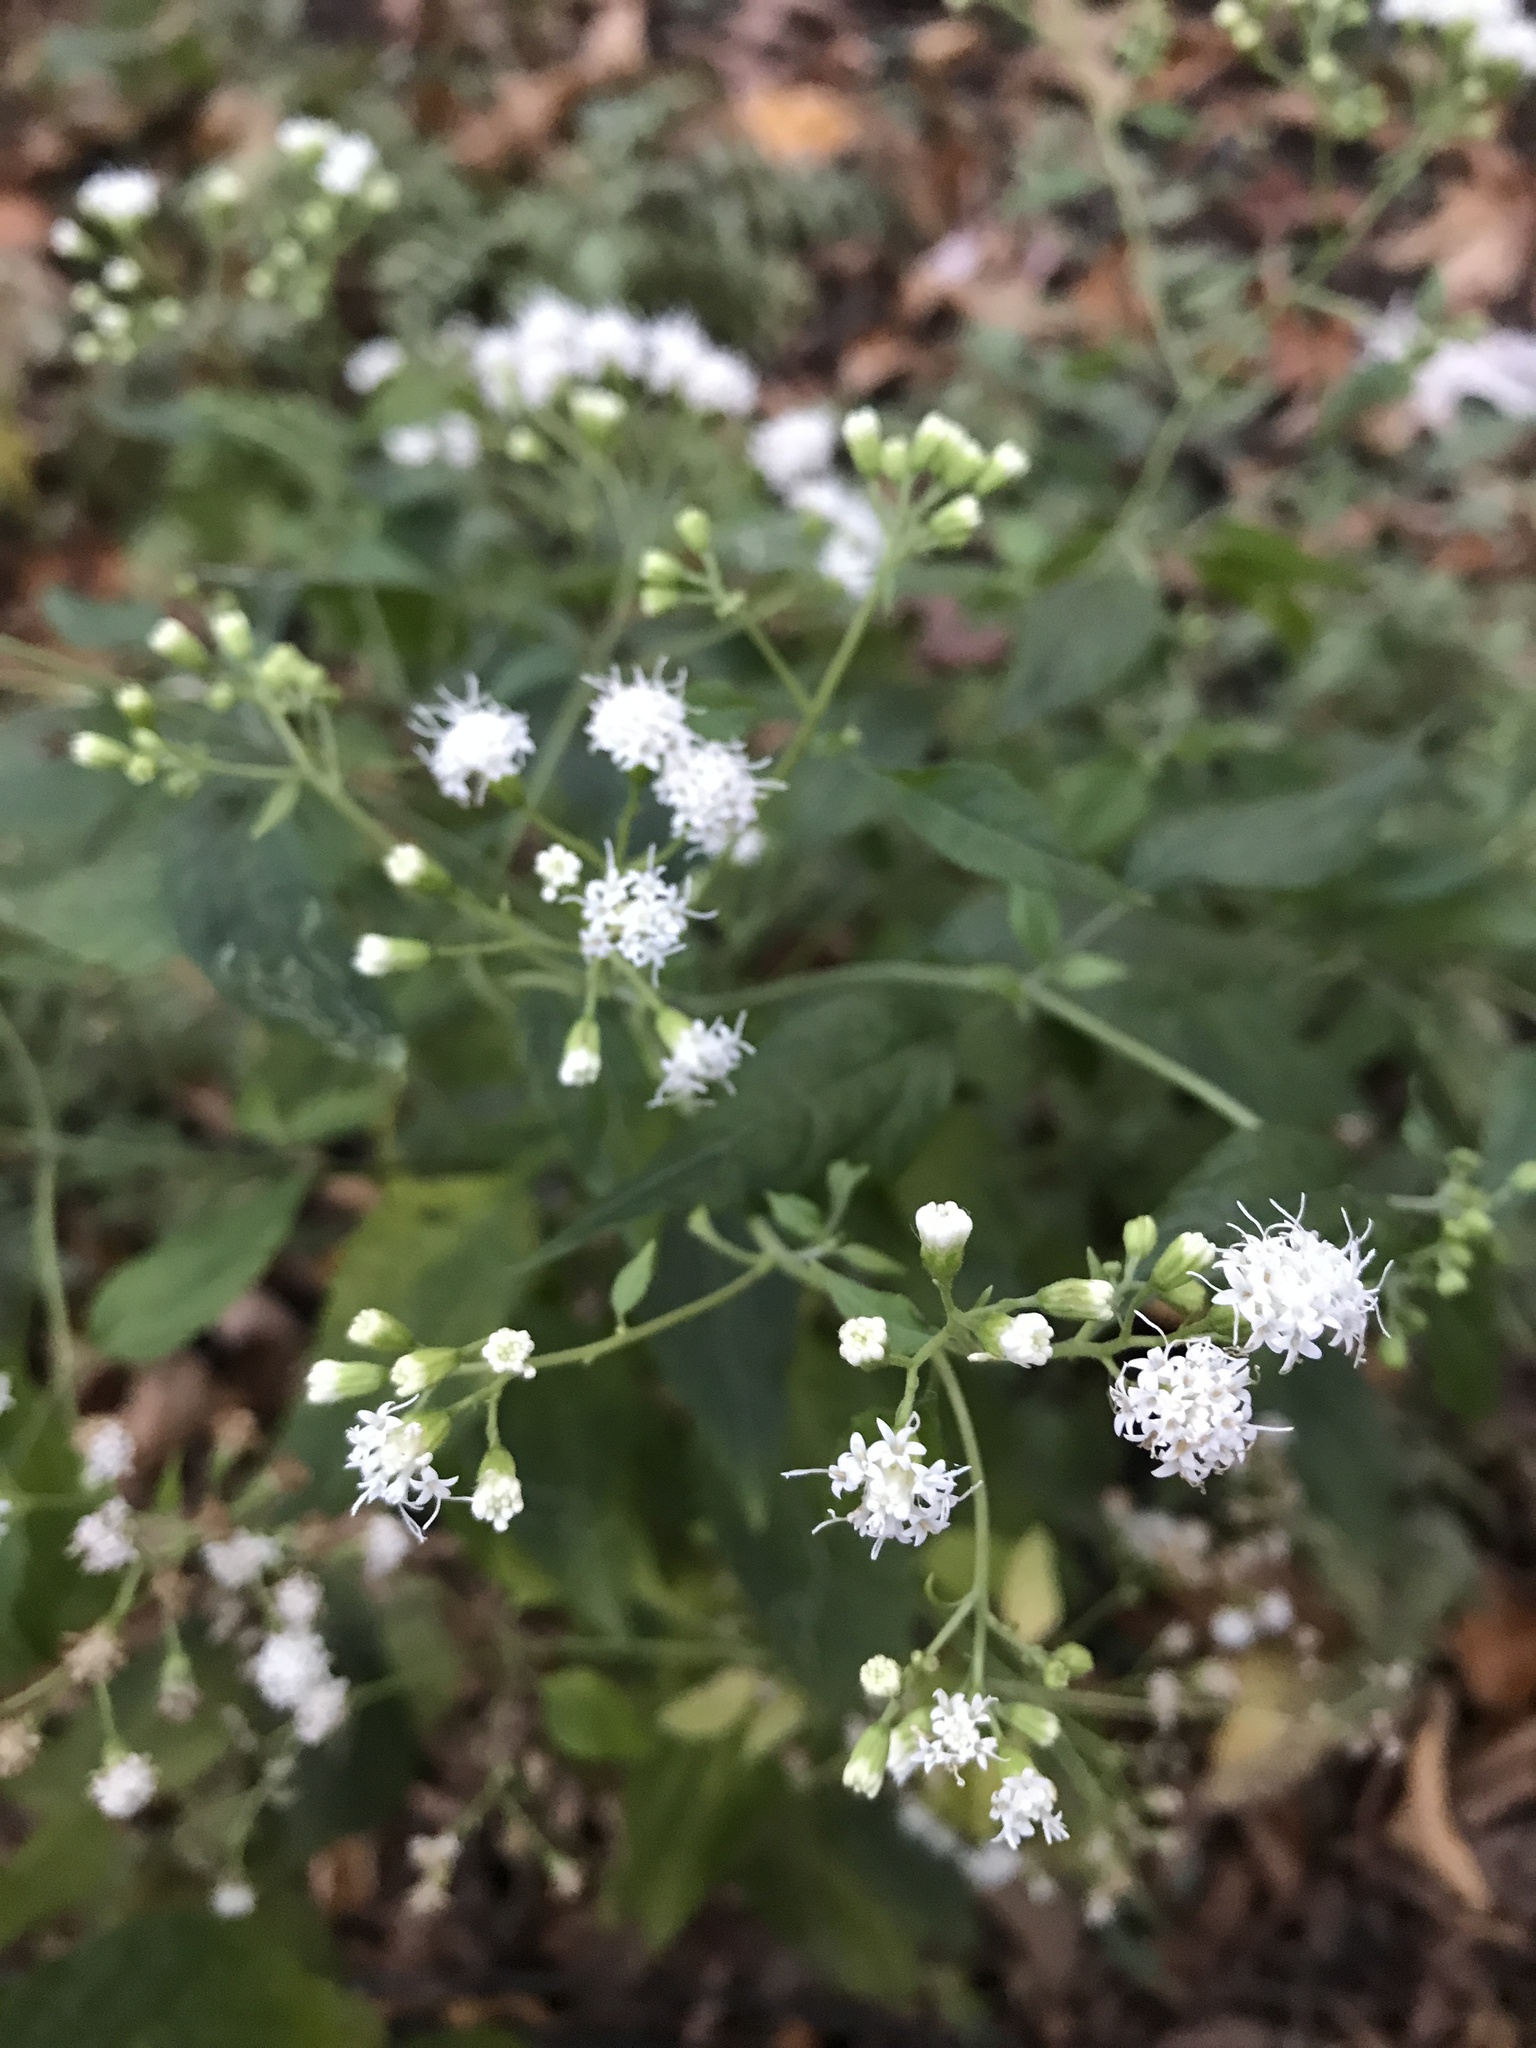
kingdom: Plantae
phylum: Tracheophyta
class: Magnoliopsida
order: Asterales
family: Asteraceae
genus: Ageratina
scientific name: Ageratina altissima
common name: White snakeroot
